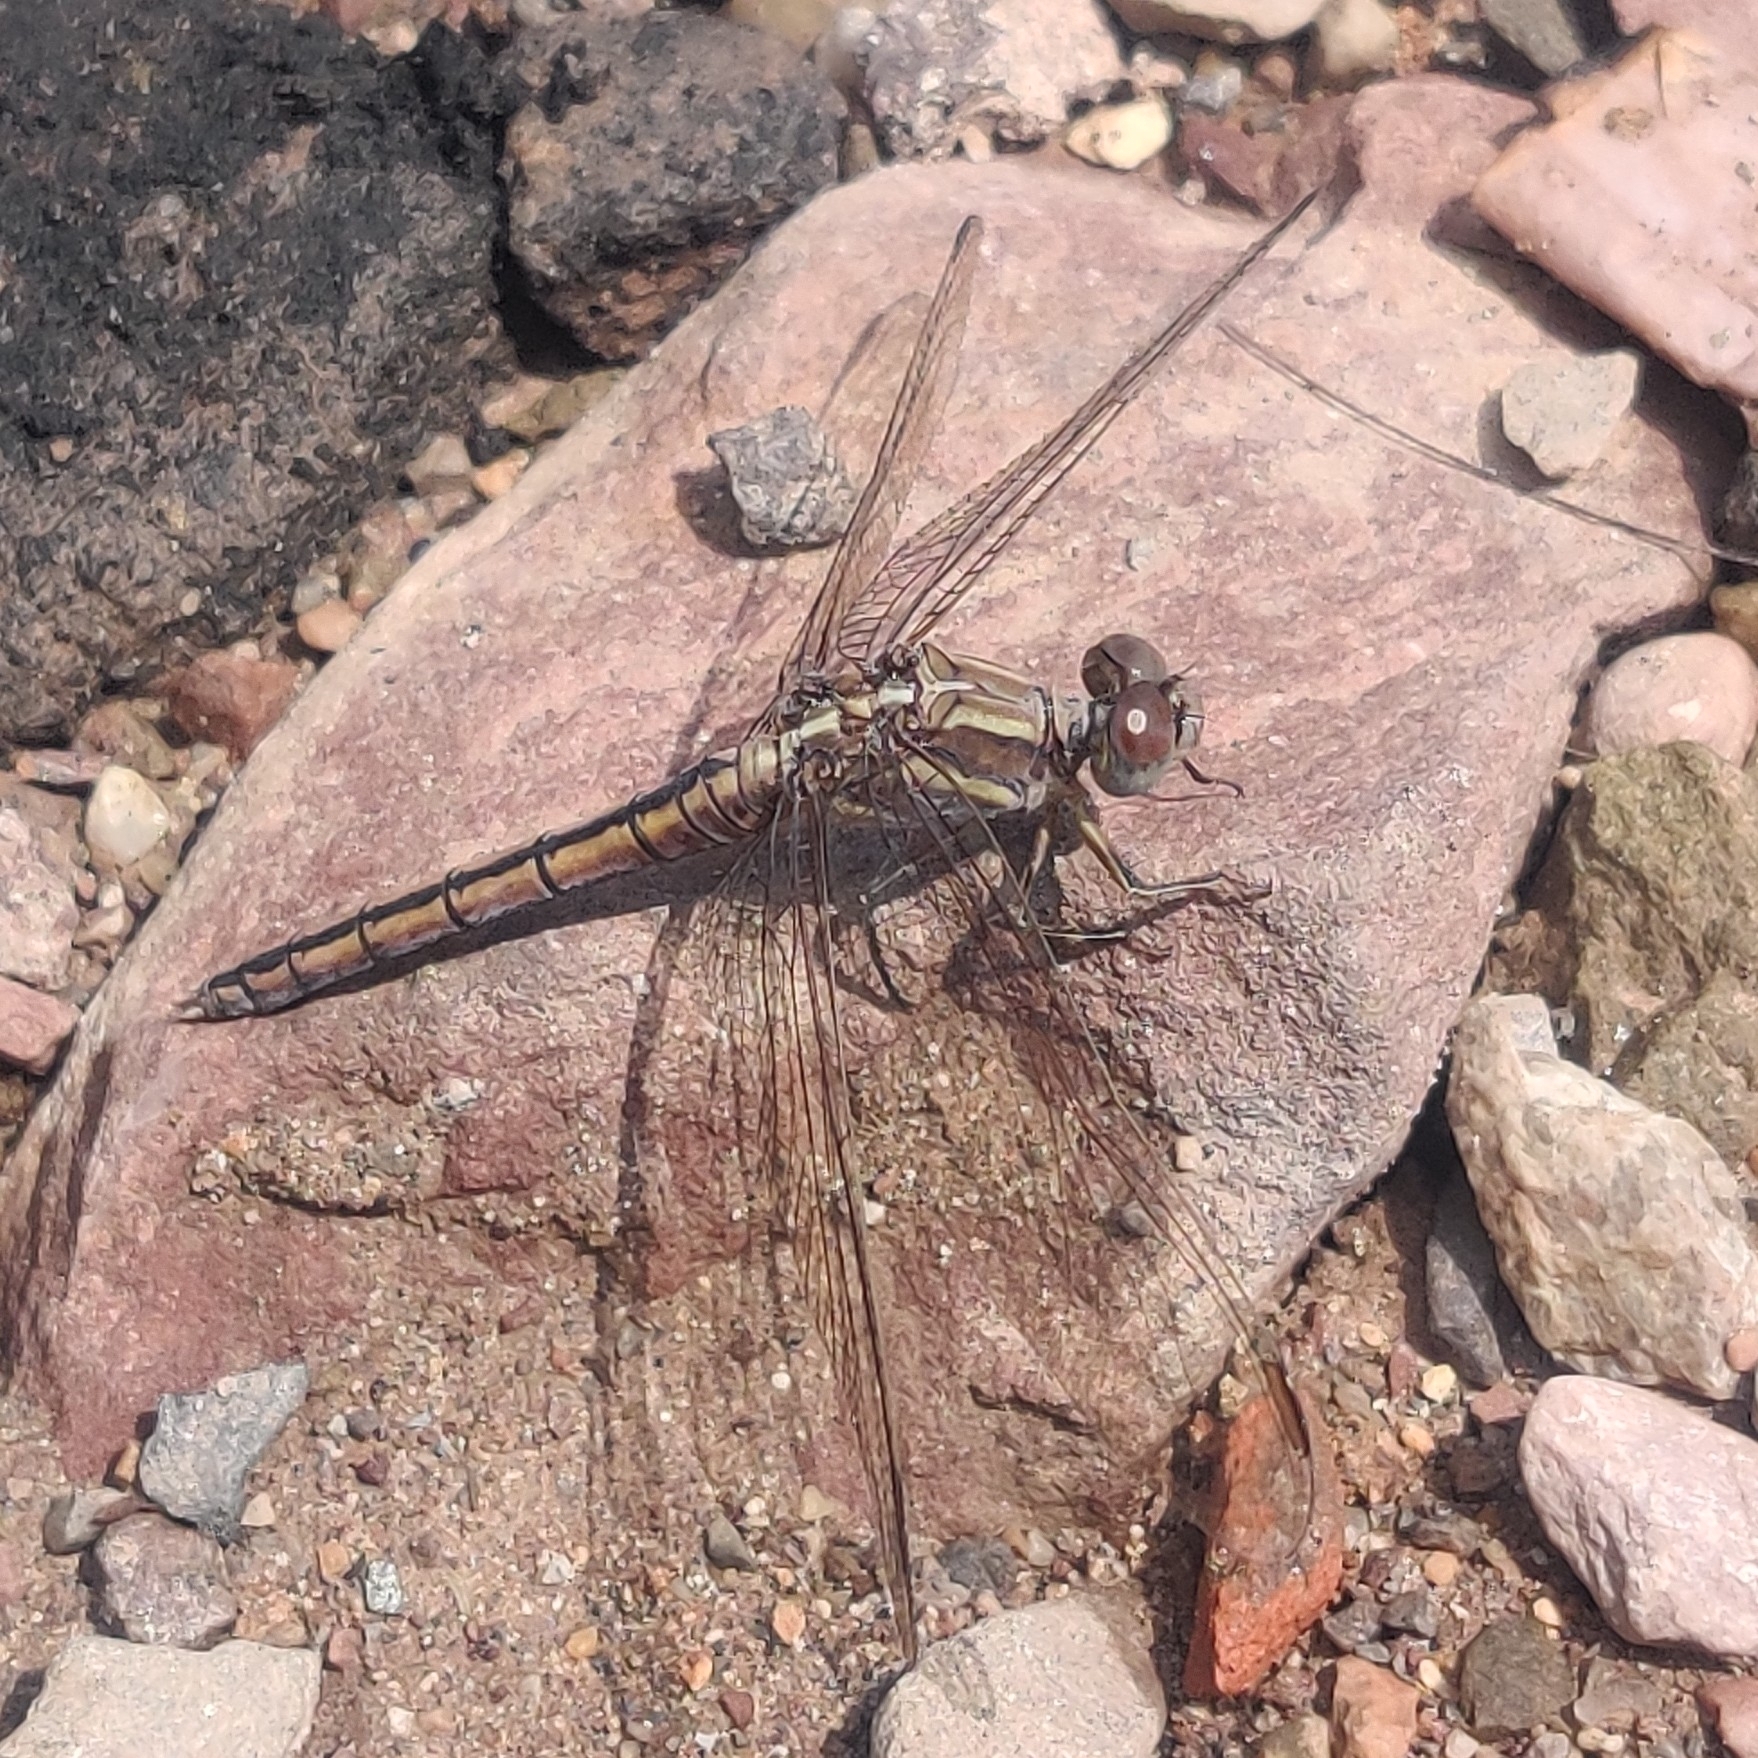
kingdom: Animalia
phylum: Arthropoda
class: Insecta
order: Odonata
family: Libellulidae
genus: Orthetrum
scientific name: Orthetrum taeniolatum
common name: Small skimmer
